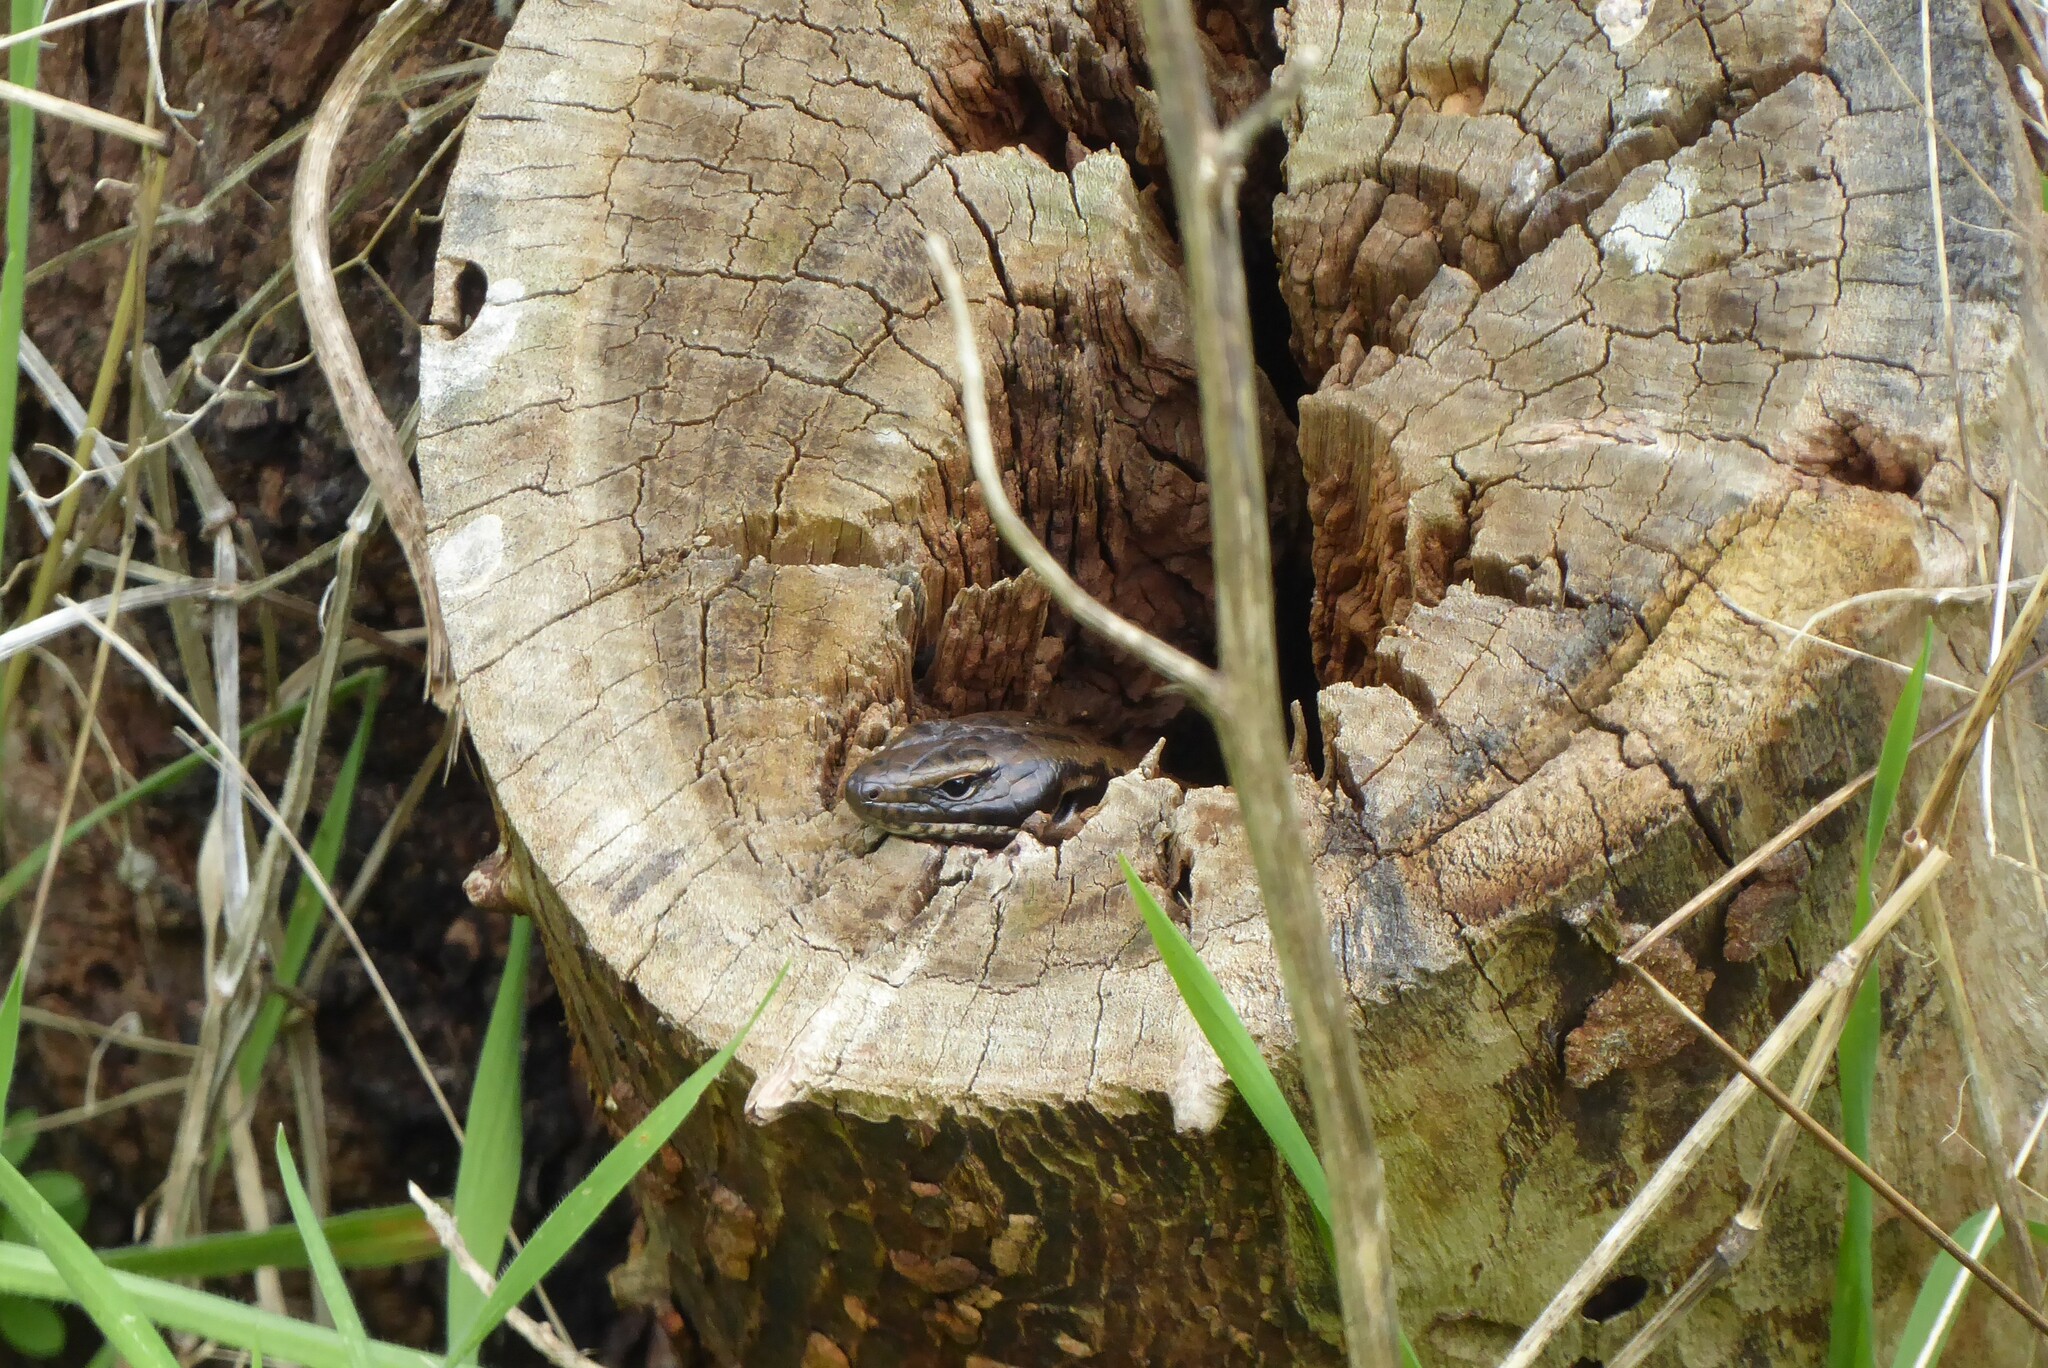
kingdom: Animalia
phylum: Chordata
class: Squamata
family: Scincidae
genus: Eulamprus
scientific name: Eulamprus tympanum
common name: Cool-temperate water-skink
